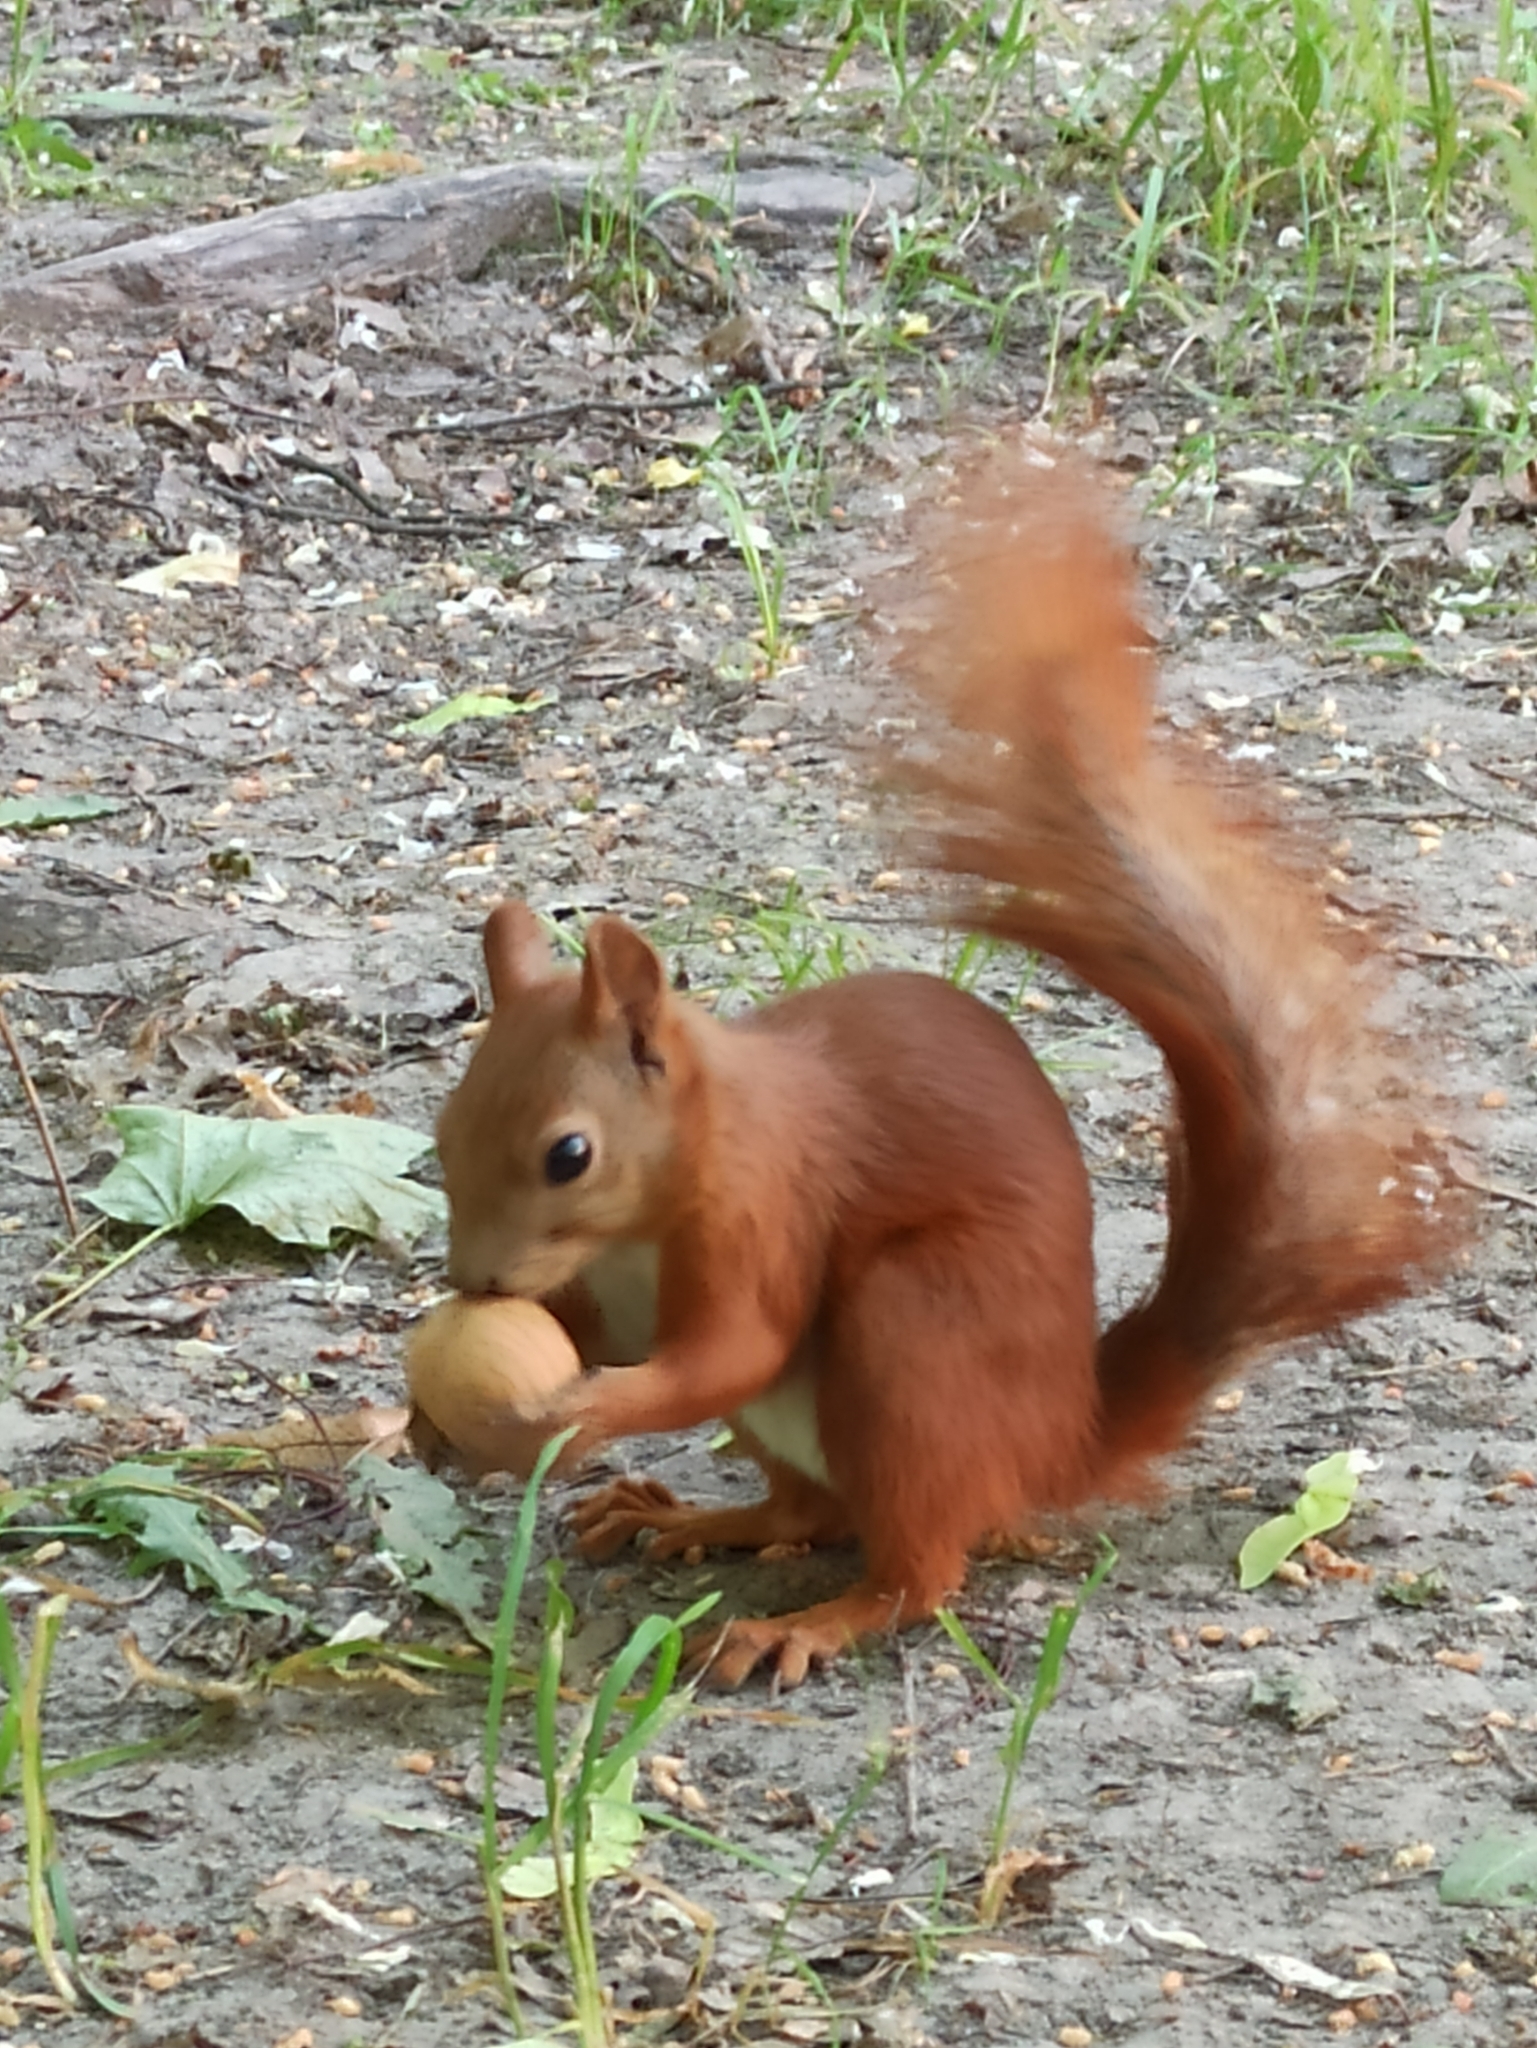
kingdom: Animalia
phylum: Chordata
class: Mammalia
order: Rodentia
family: Sciuridae
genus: Sciurus
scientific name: Sciurus vulgaris
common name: Eurasian red squirrel
